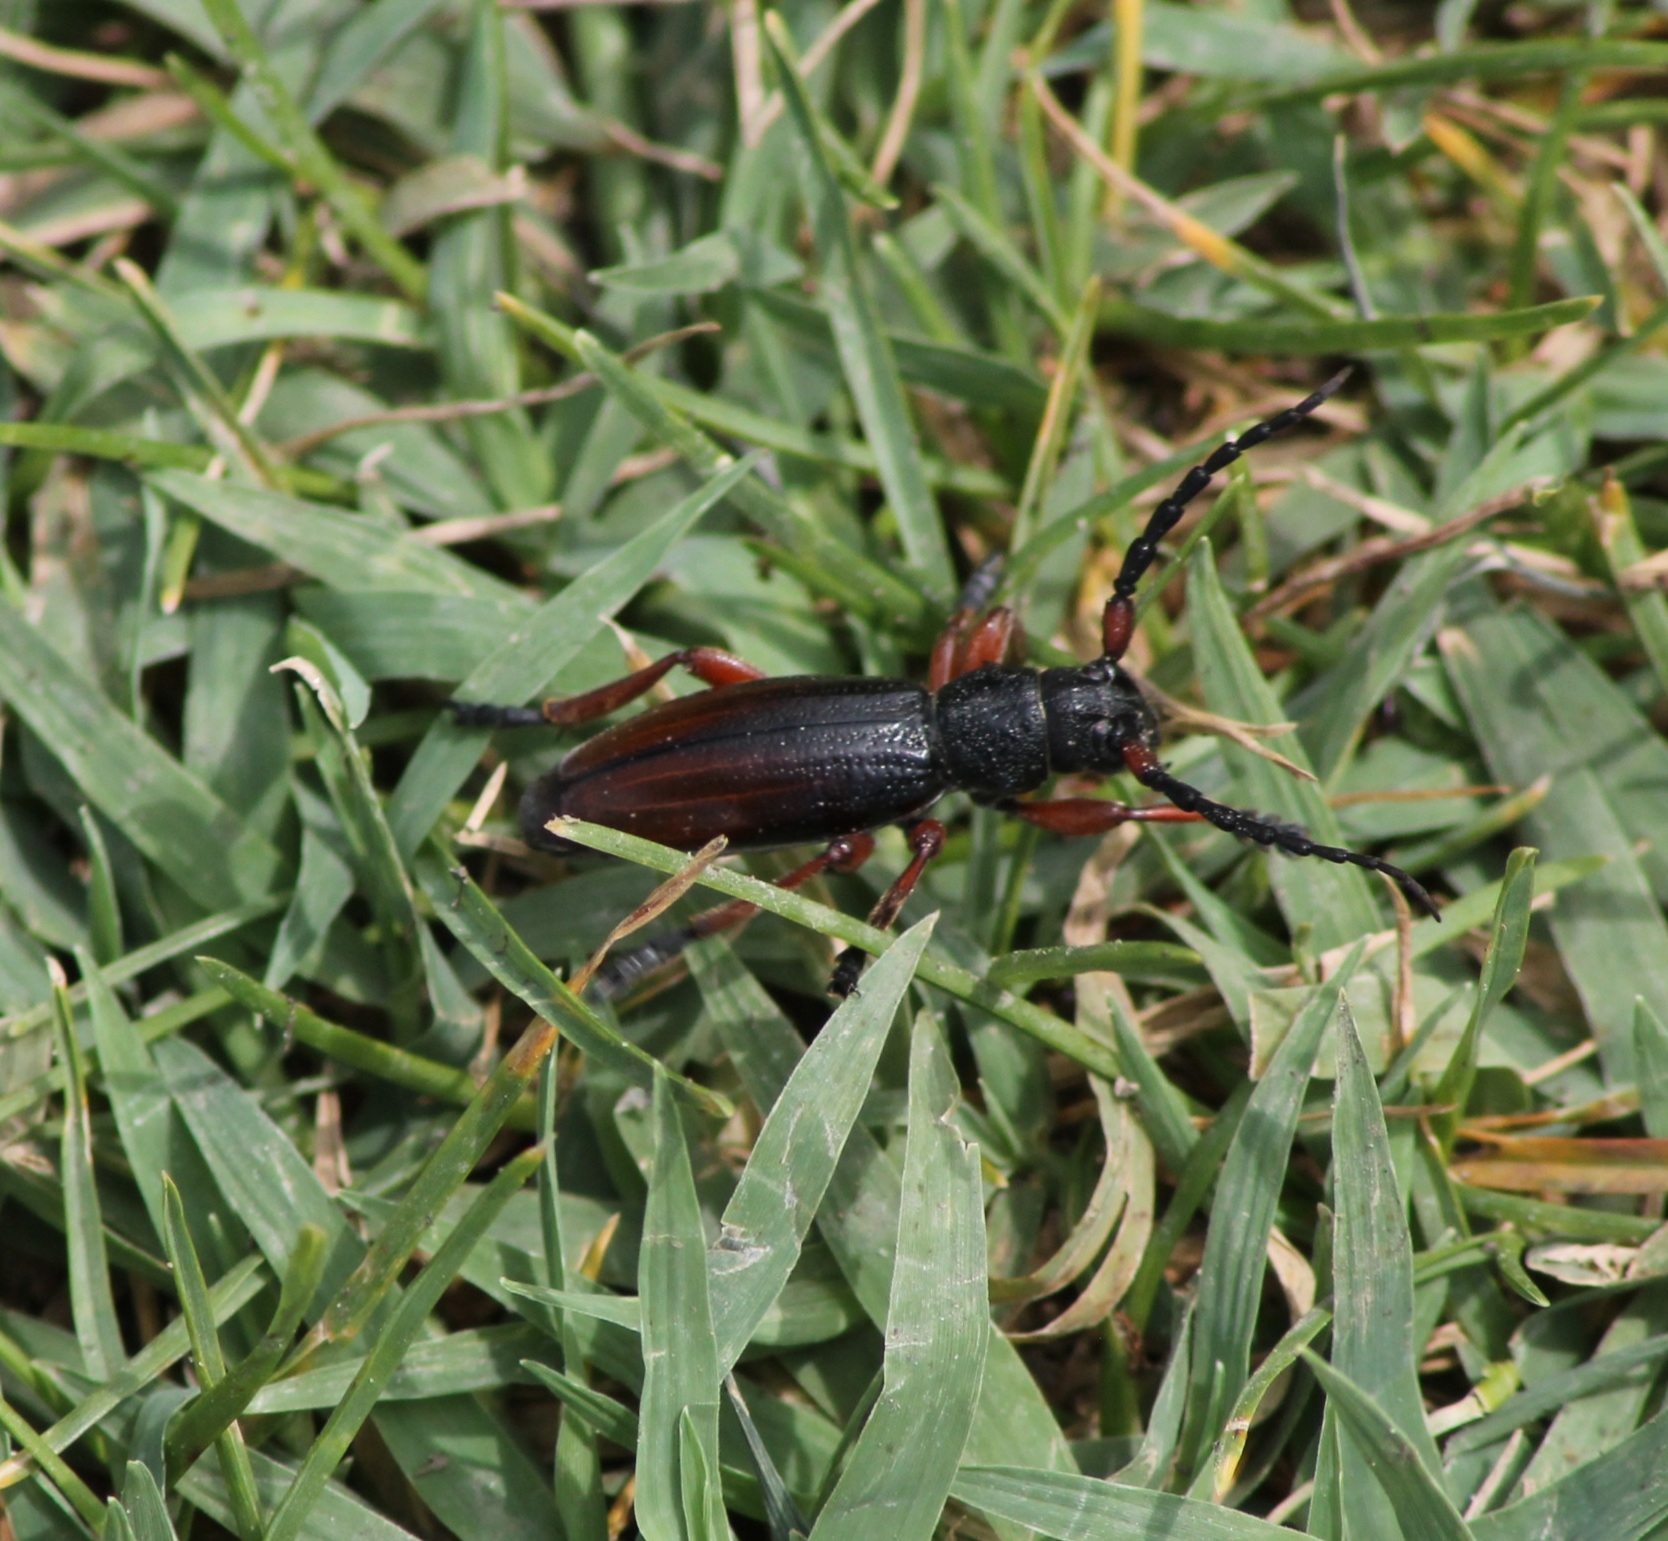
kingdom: Animalia
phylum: Arthropoda
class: Insecta
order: Coleoptera
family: Cerambycidae
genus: Dorcadion
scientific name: Dorcadion fulvum
